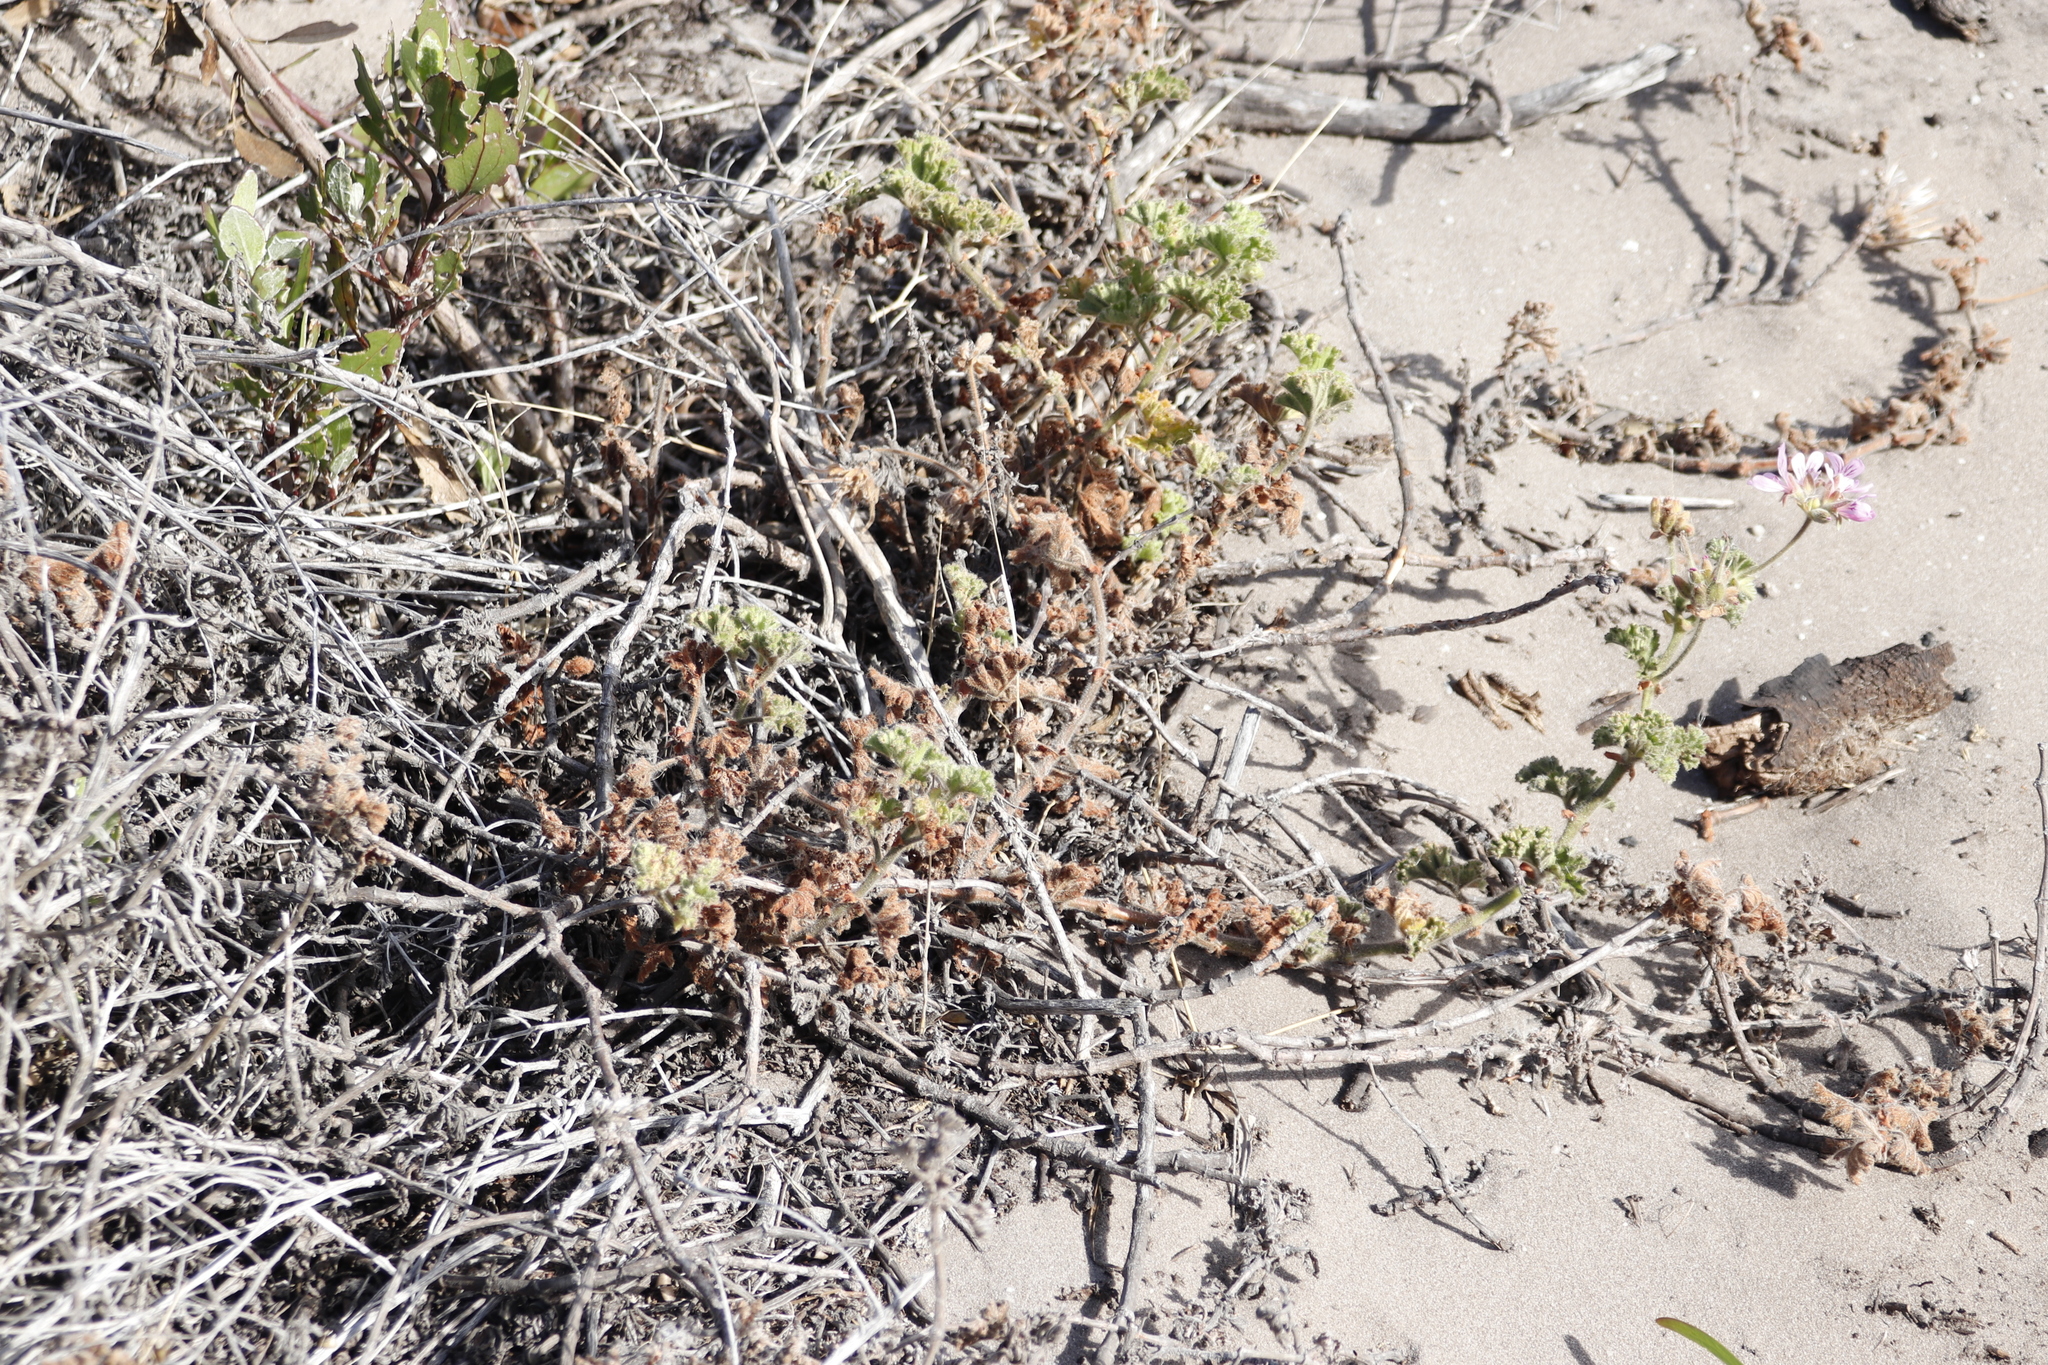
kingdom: Plantae
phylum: Tracheophyta
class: Magnoliopsida
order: Geraniales
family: Geraniaceae
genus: Pelargonium
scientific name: Pelargonium capitatum
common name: Rose scented geranium
